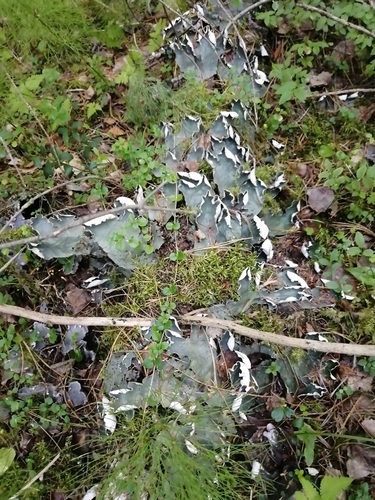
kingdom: Fungi
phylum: Ascomycota
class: Lecanoromycetes
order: Peltigerales
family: Peltigeraceae
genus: Peltigera
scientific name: Peltigera aphthosa
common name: Common freckle pelt lichen
